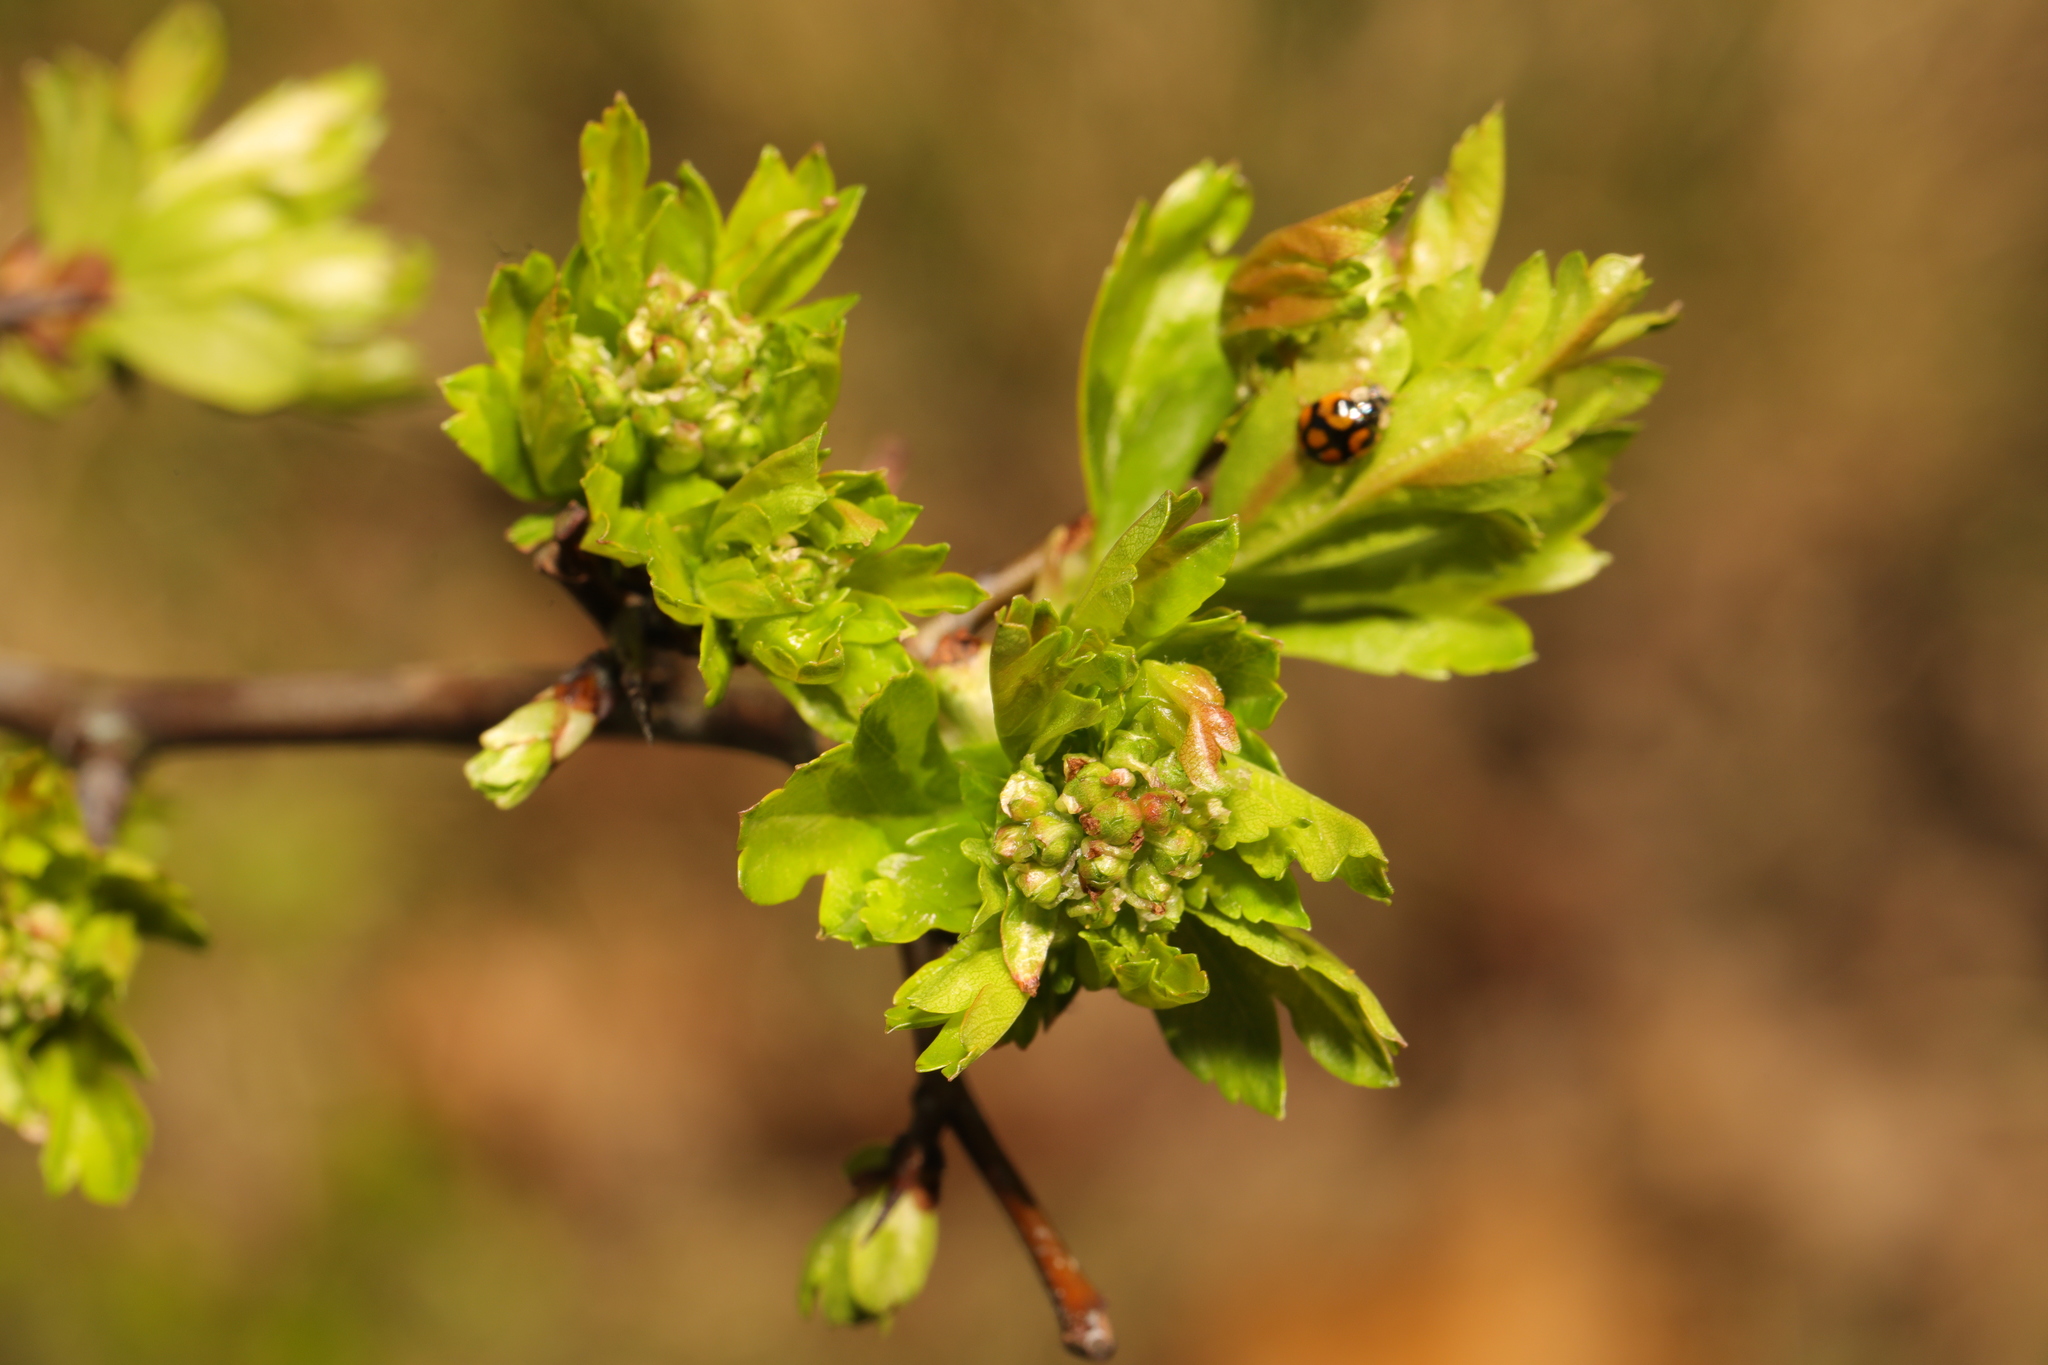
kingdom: Plantae
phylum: Tracheophyta
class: Magnoliopsida
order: Rosales
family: Rosaceae
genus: Crataegus
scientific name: Crataegus monogyna
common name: Hawthorn
